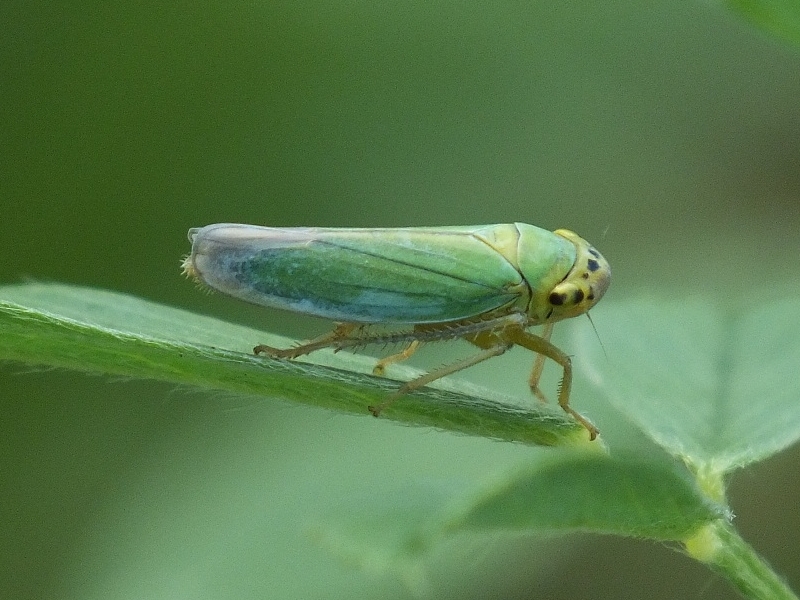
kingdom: Animalia
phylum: Arthropoda
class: Insecta
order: Hemiptera
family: Cicadellidae
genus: Cicadella
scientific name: Cicadella viridis
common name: Leafhopper
